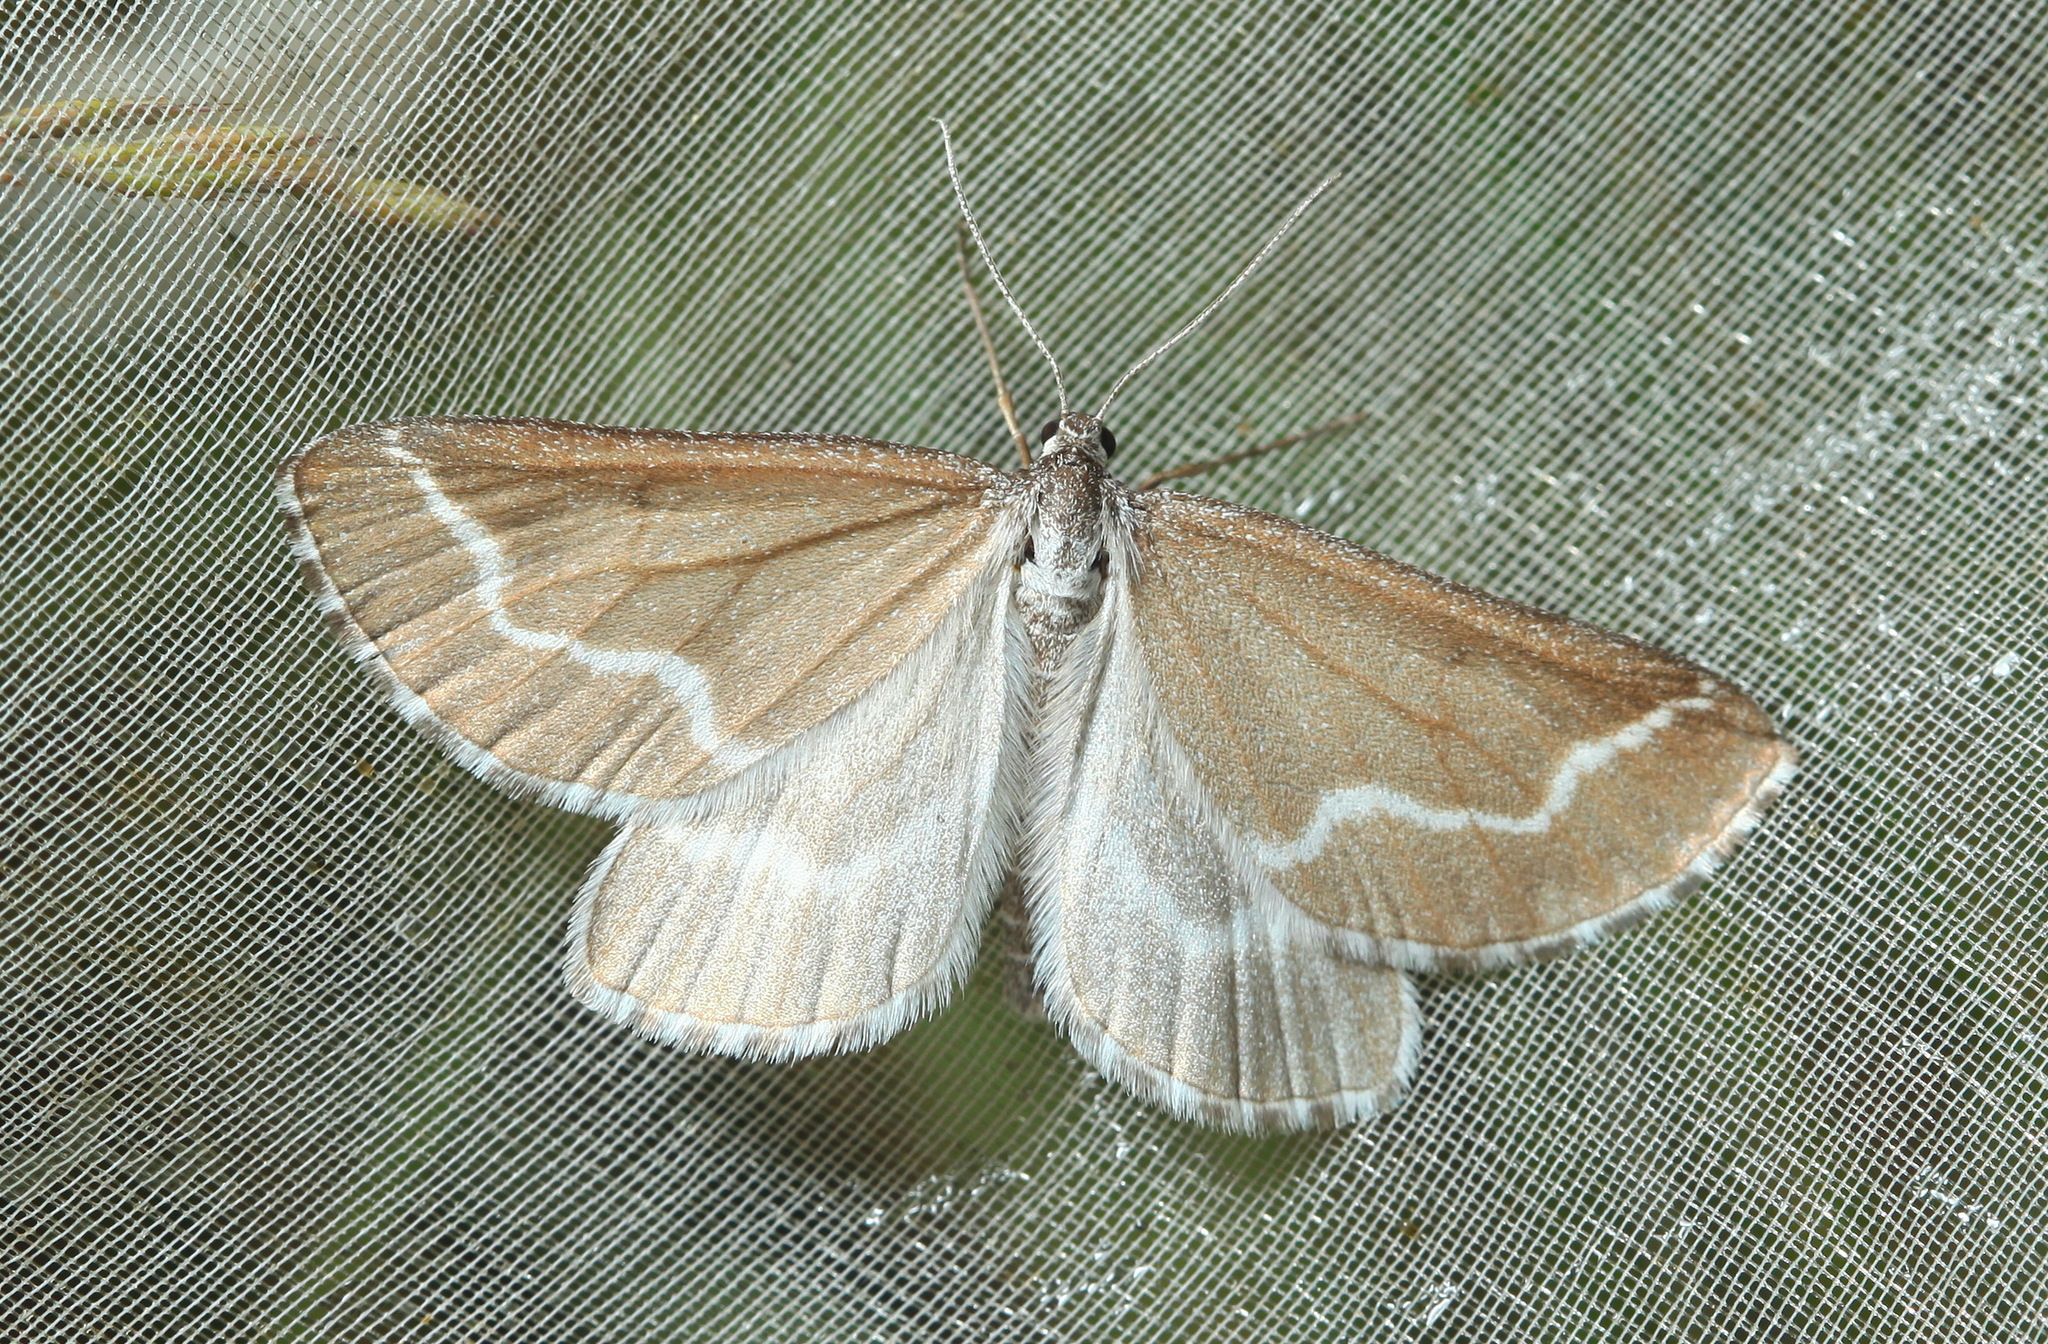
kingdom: Animalia
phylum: Arthropoda
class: Insecta
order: Lepidoptera
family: Geometridae
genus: Schistostege
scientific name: Schistostege nubilaria
